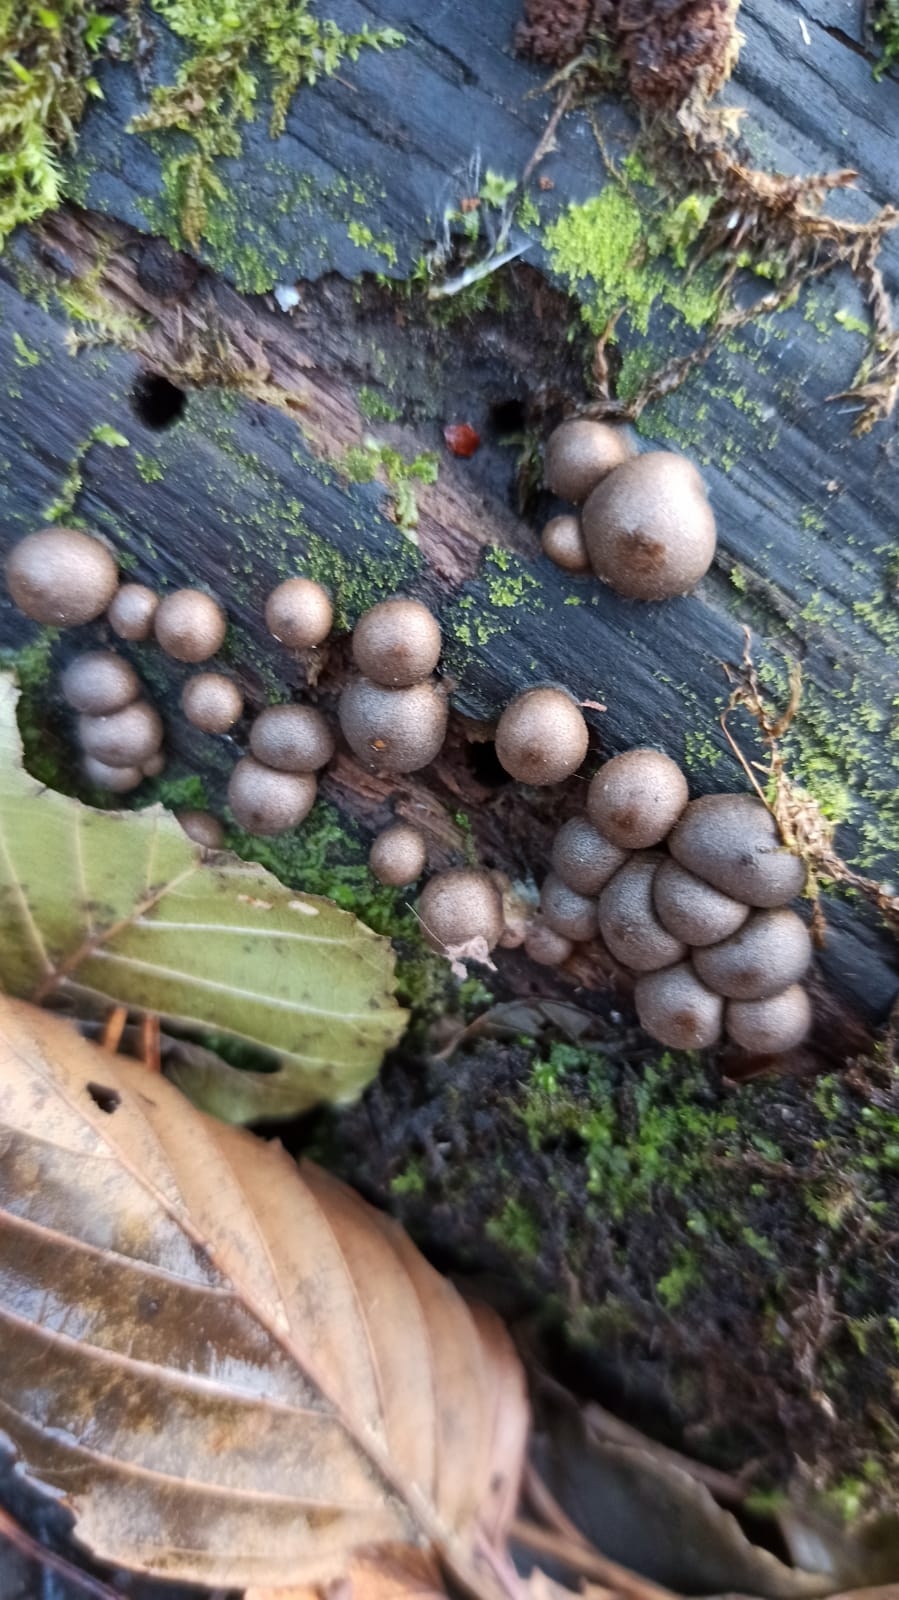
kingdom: Protozoa
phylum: Mycetozoa
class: Myxomycetes
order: Cribrariales
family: Tubiferaceae
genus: Lycogala
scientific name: Lycogala epidendrum
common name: Wolf's milk
